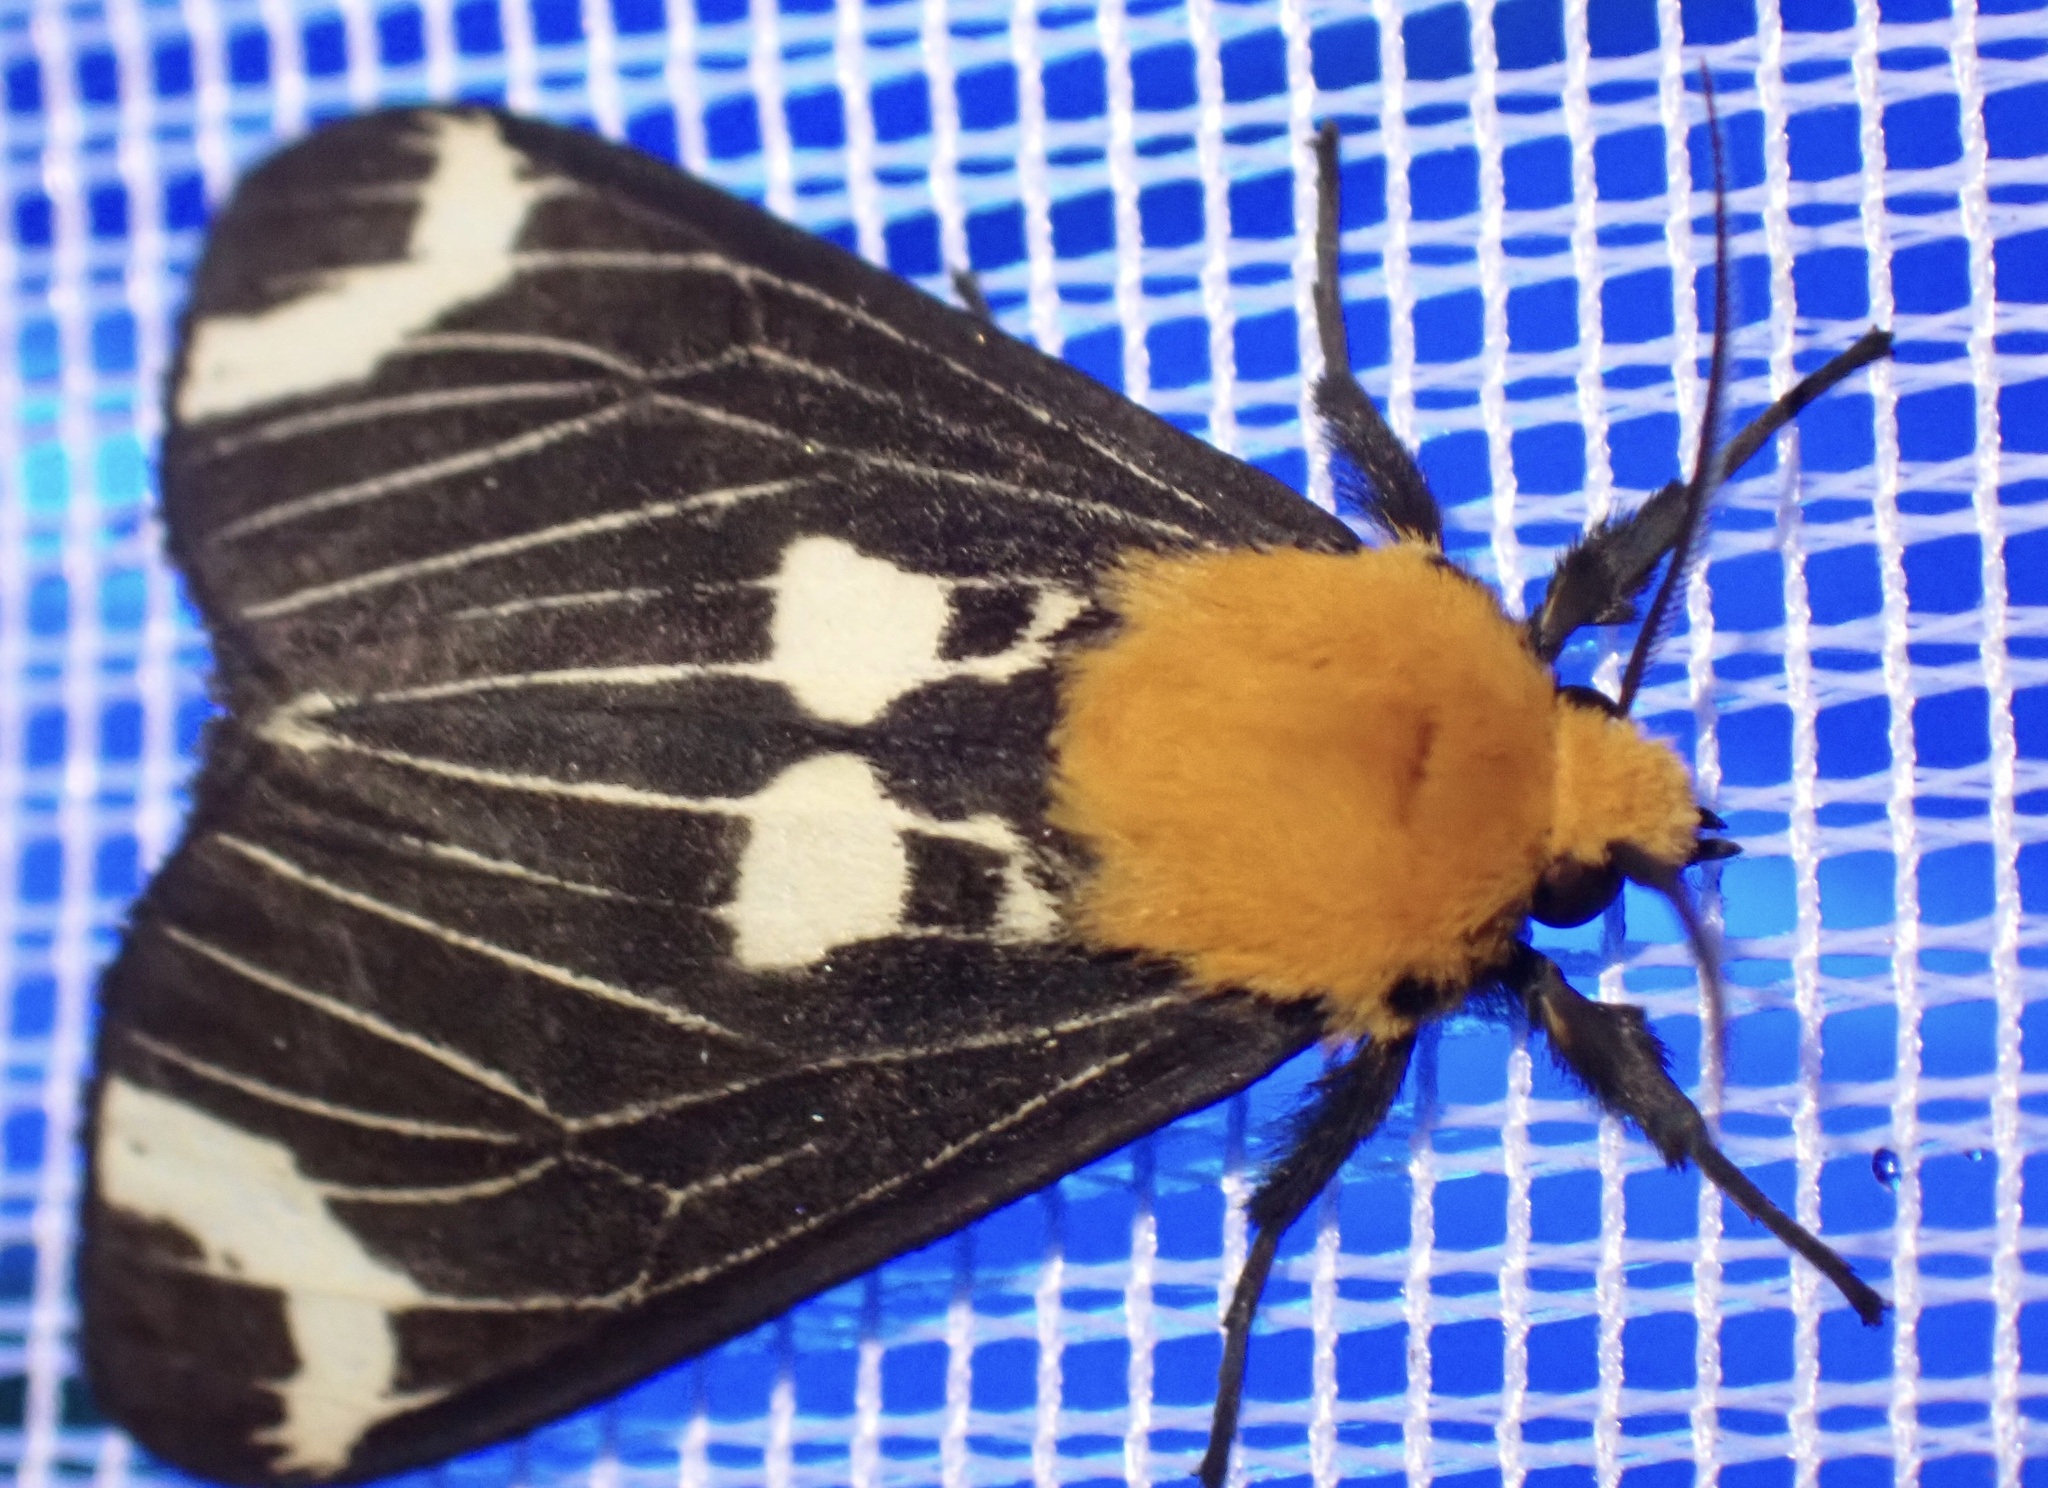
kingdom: Animalia
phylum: Arthropoda
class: Insecta
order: Lepidoptera
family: Erebidae
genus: Spilosoma
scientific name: Spilosoma styx
